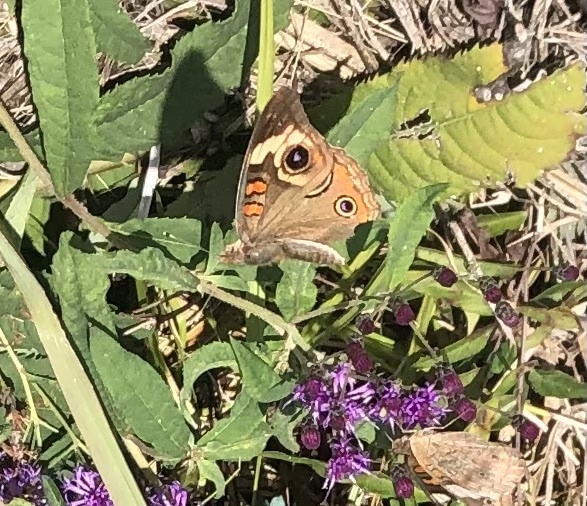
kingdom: Animalia
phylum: Arthropoda
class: Insecta
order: Lepidoptera
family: Nymphalidae
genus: Junonia
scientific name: Junonia coenia
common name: Common buckeye
